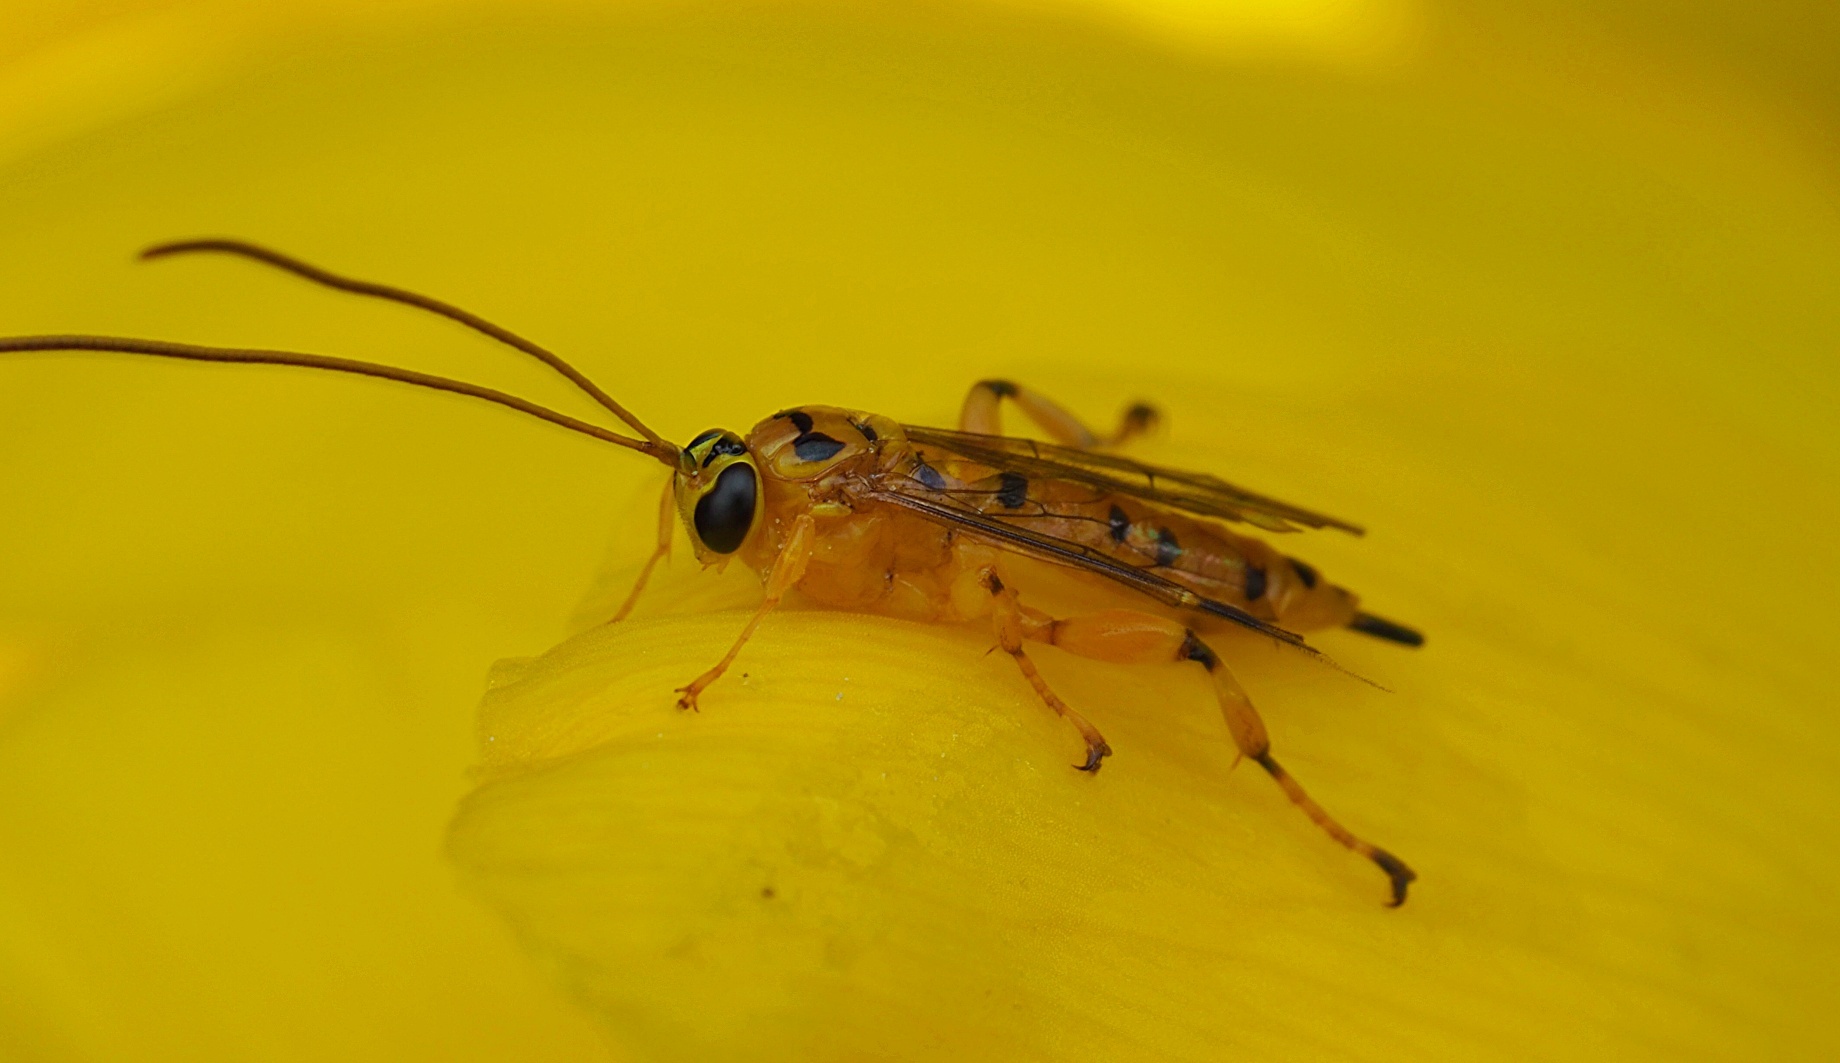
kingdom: Animalia
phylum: Arthropoda
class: Insecta
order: Hymenoptera
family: Ichneumonidae
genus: Xanthopimpla
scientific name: Xanthopimpla rhopaloceros
